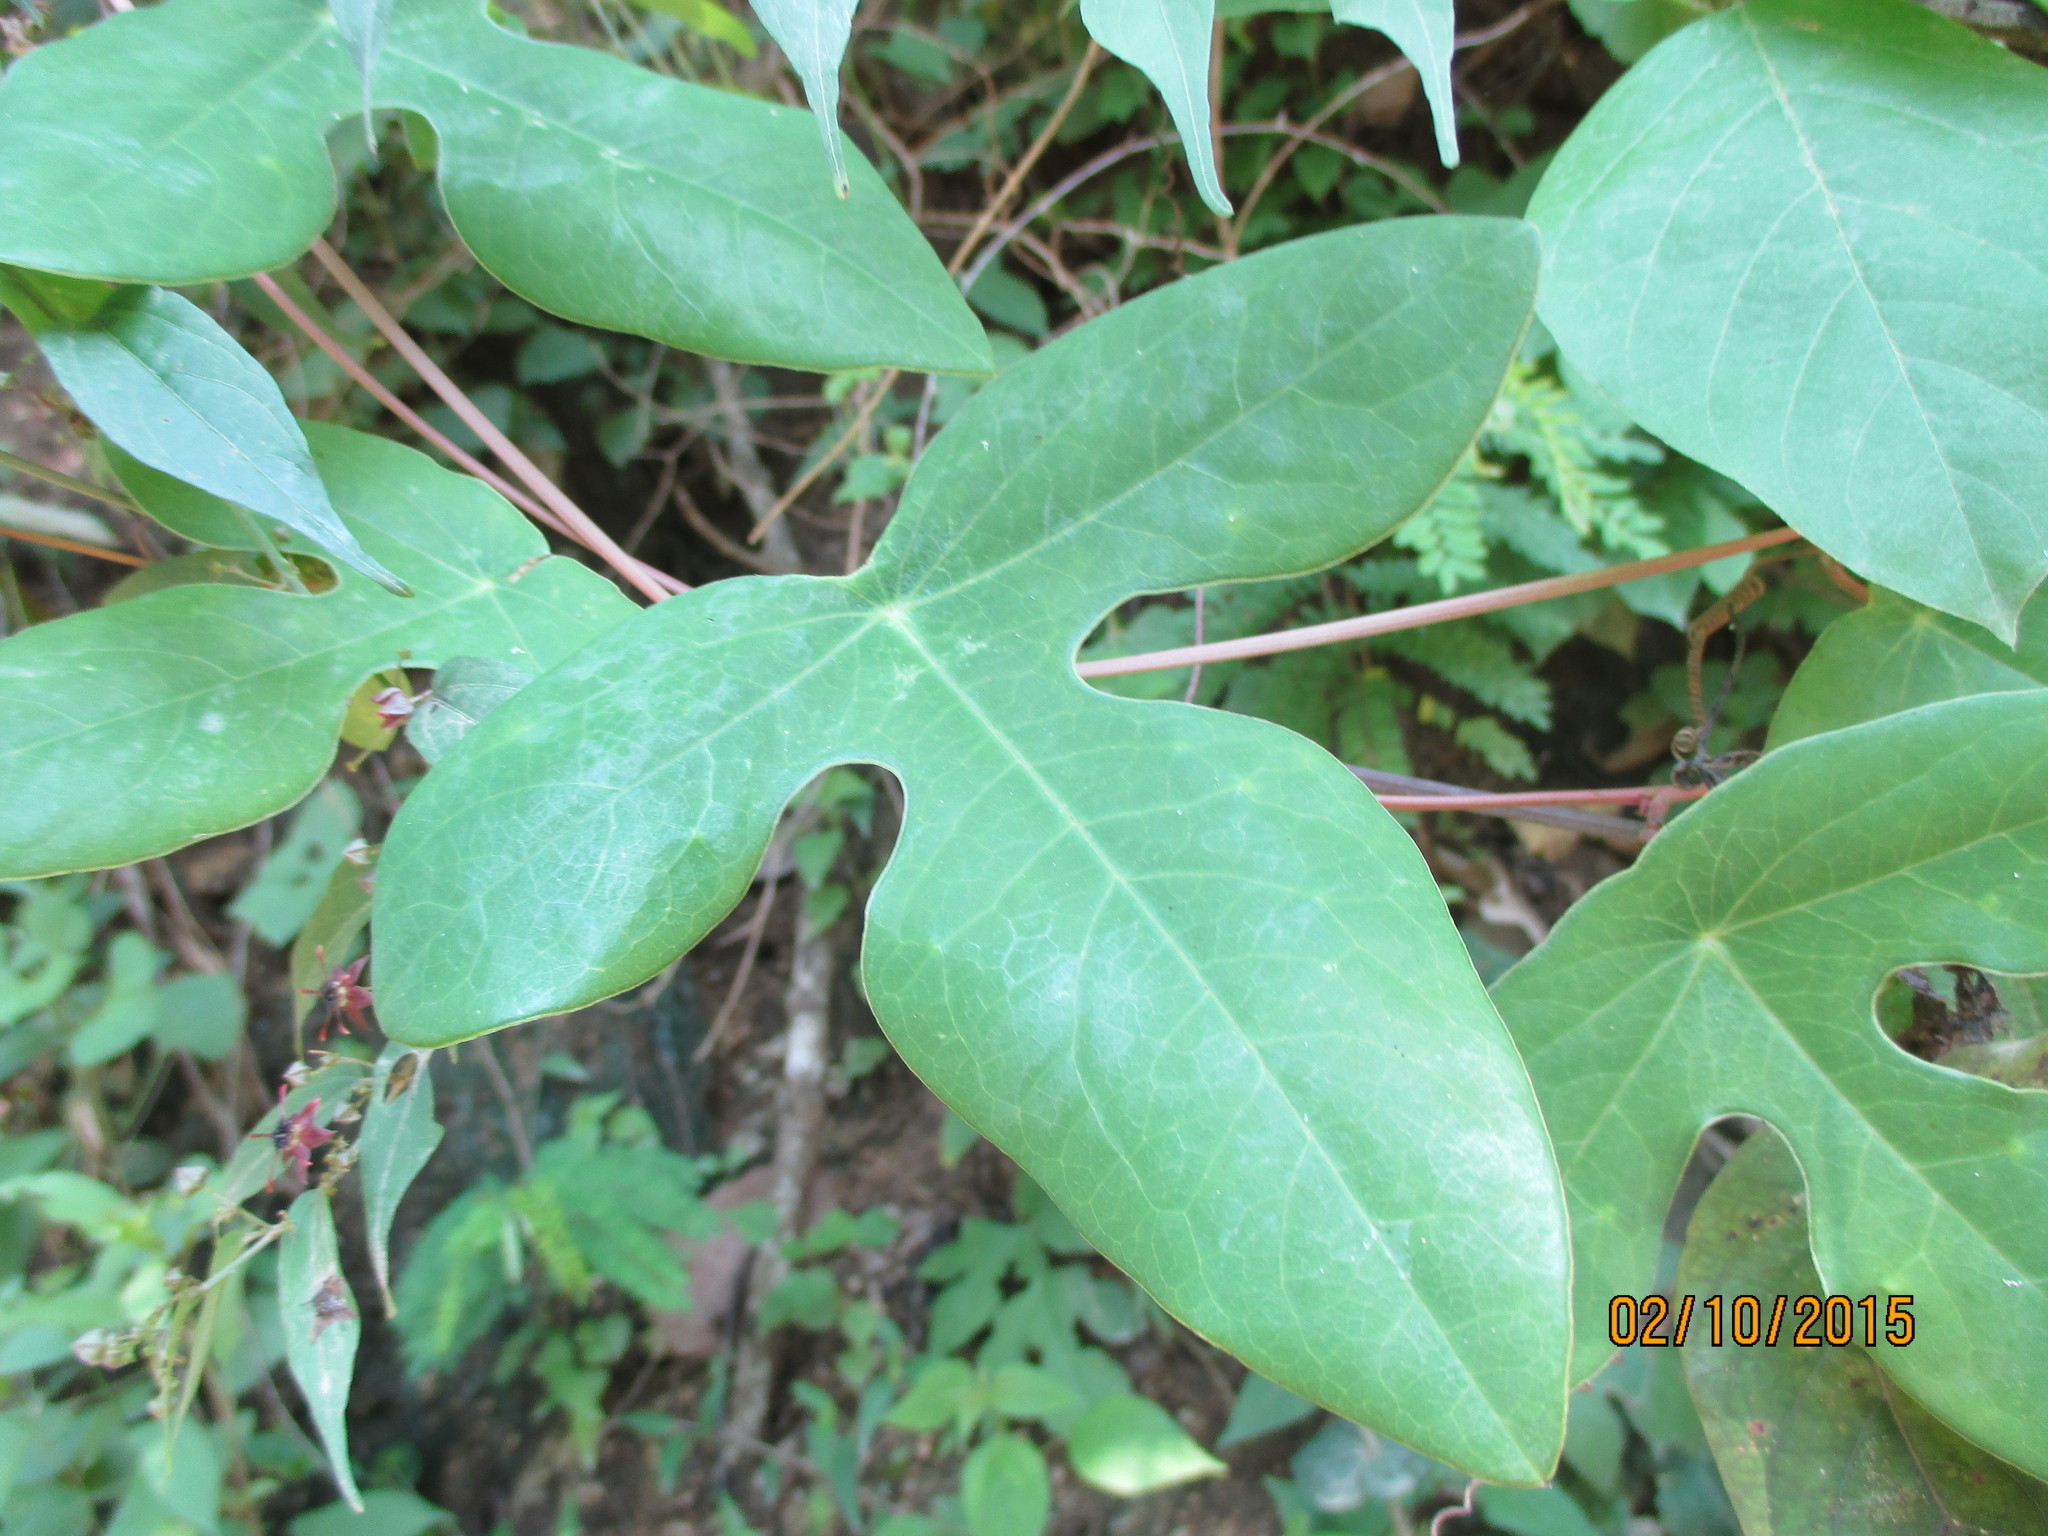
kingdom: Plantae
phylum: Tracheophyta
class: Magnoliopsida
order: Malpighiales
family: Passifloraceae
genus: Passiflora
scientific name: Passiflora viridiflora
